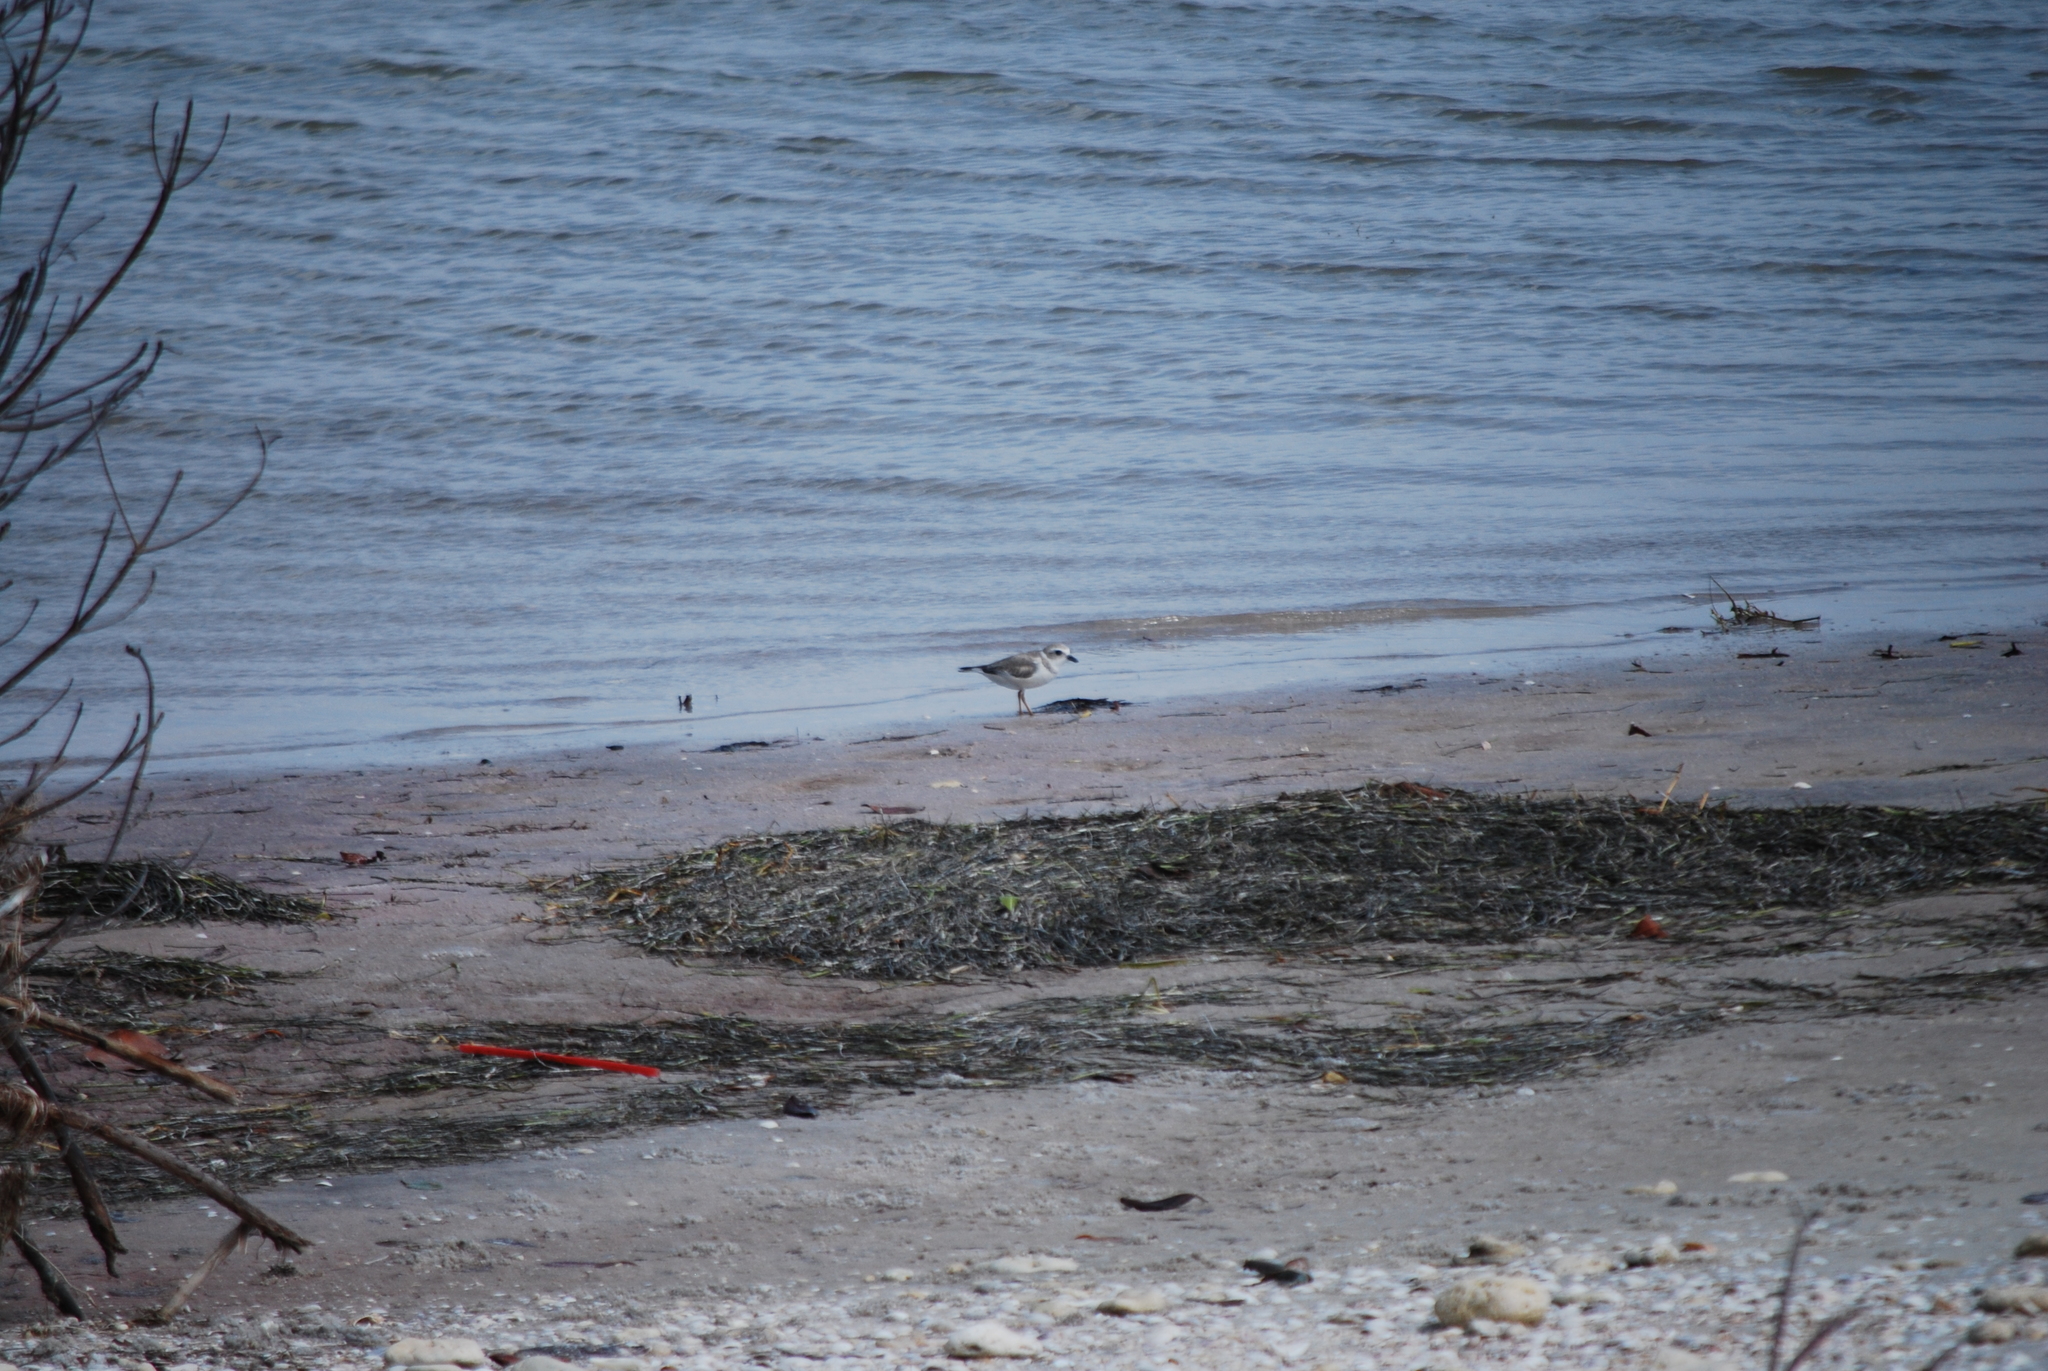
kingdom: Animalia
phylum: Chordata
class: Aves
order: Charadriiformes
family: Charadriidae
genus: Charadrius
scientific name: Charadrius melodus
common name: Piping plover
